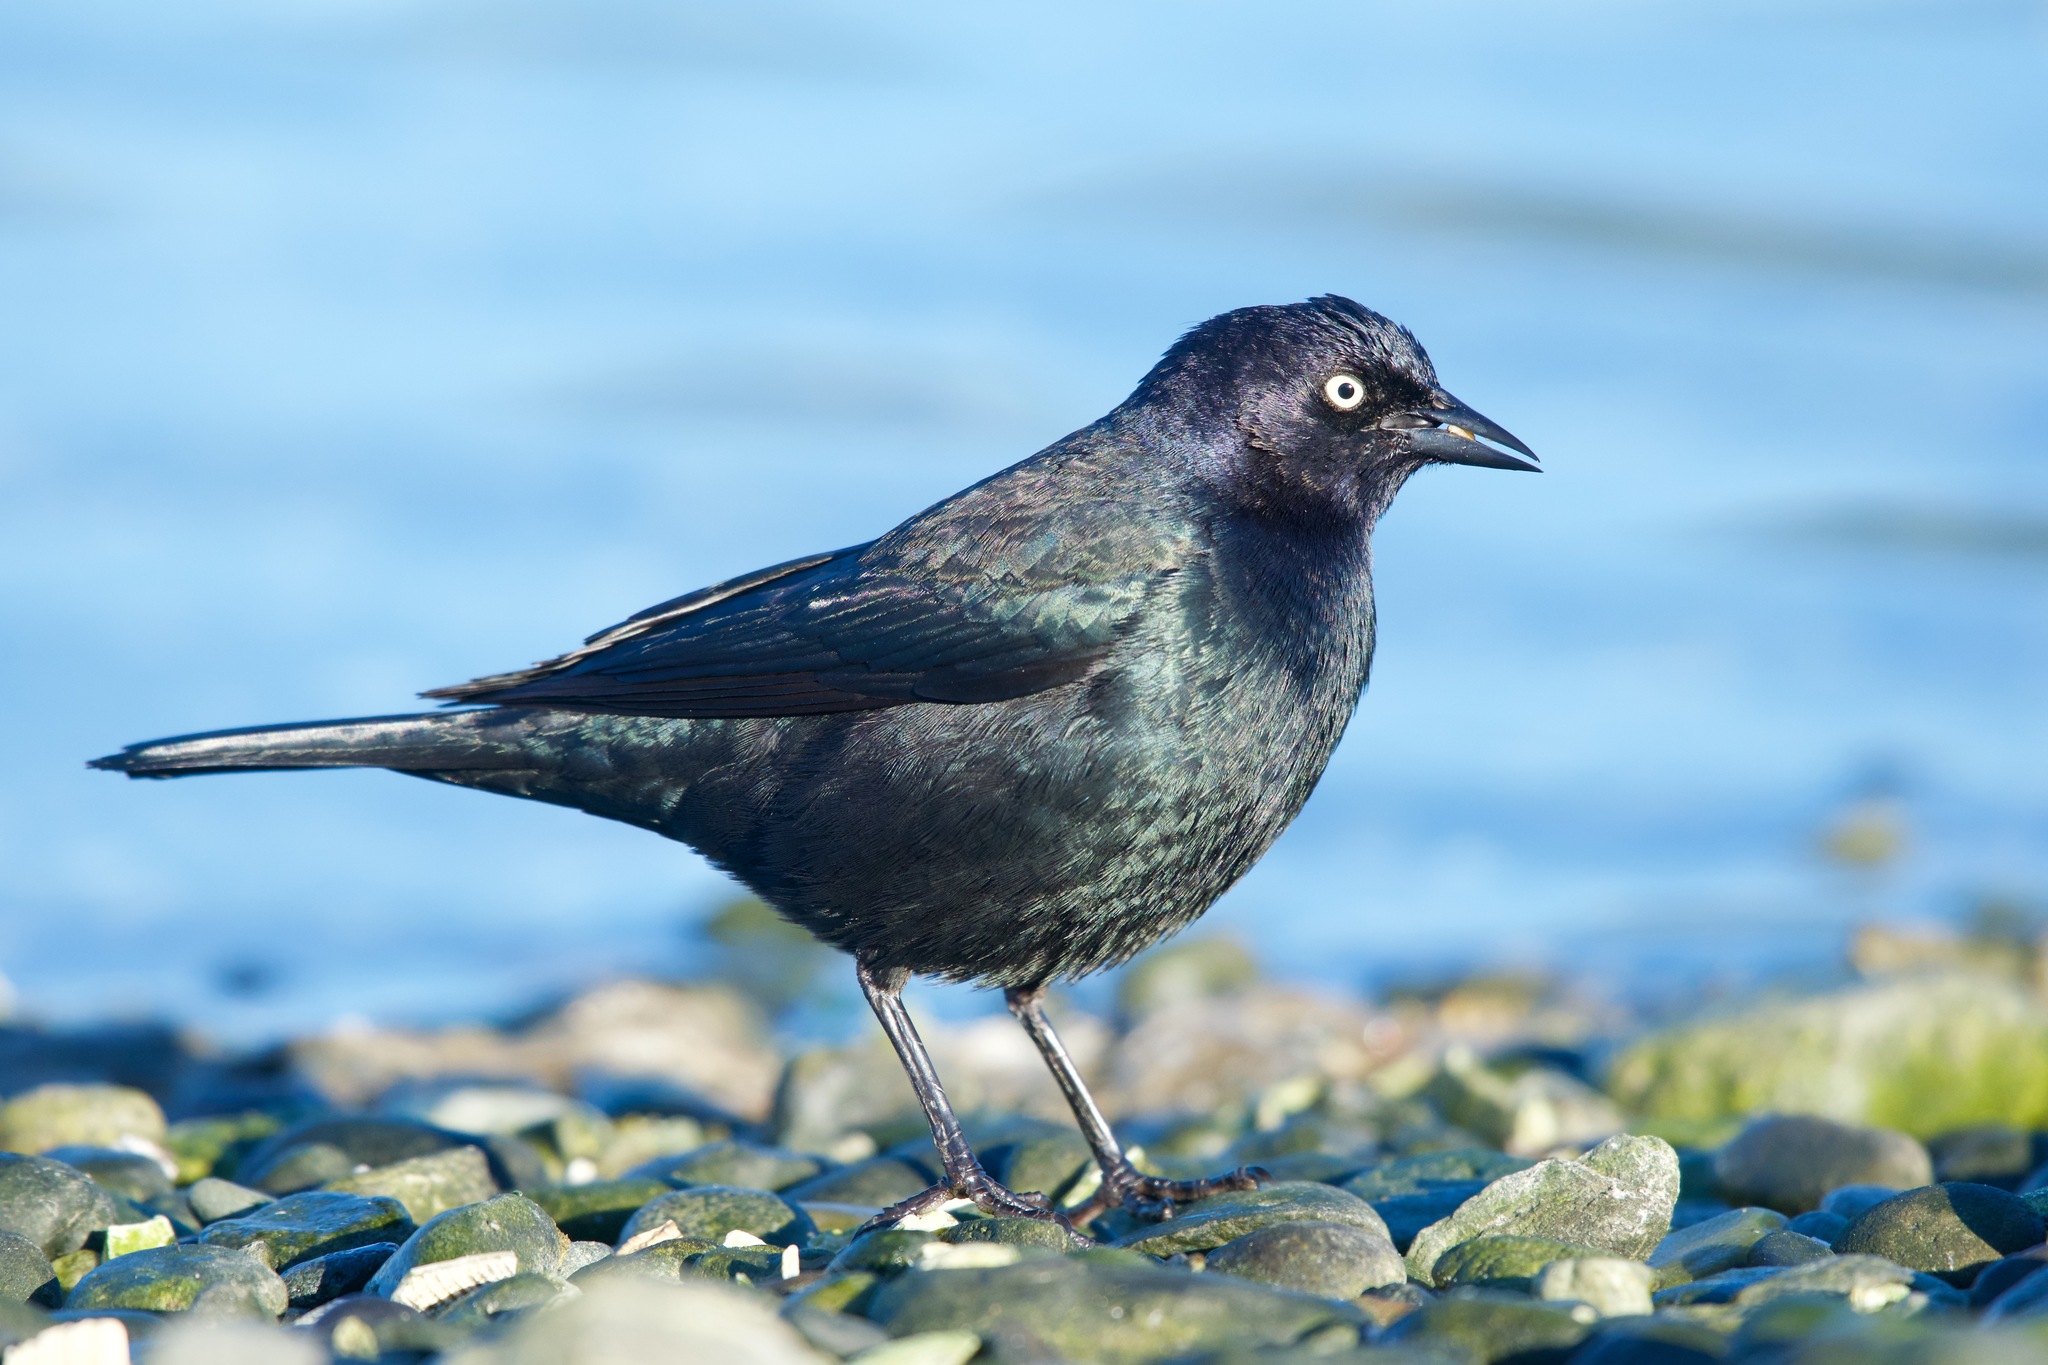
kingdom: Animalia
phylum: Chordata
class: Aves
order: Passeriformes
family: Icteridae
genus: Euphagus
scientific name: Euphagus cyanocephalus
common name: Brewer's blackbird
